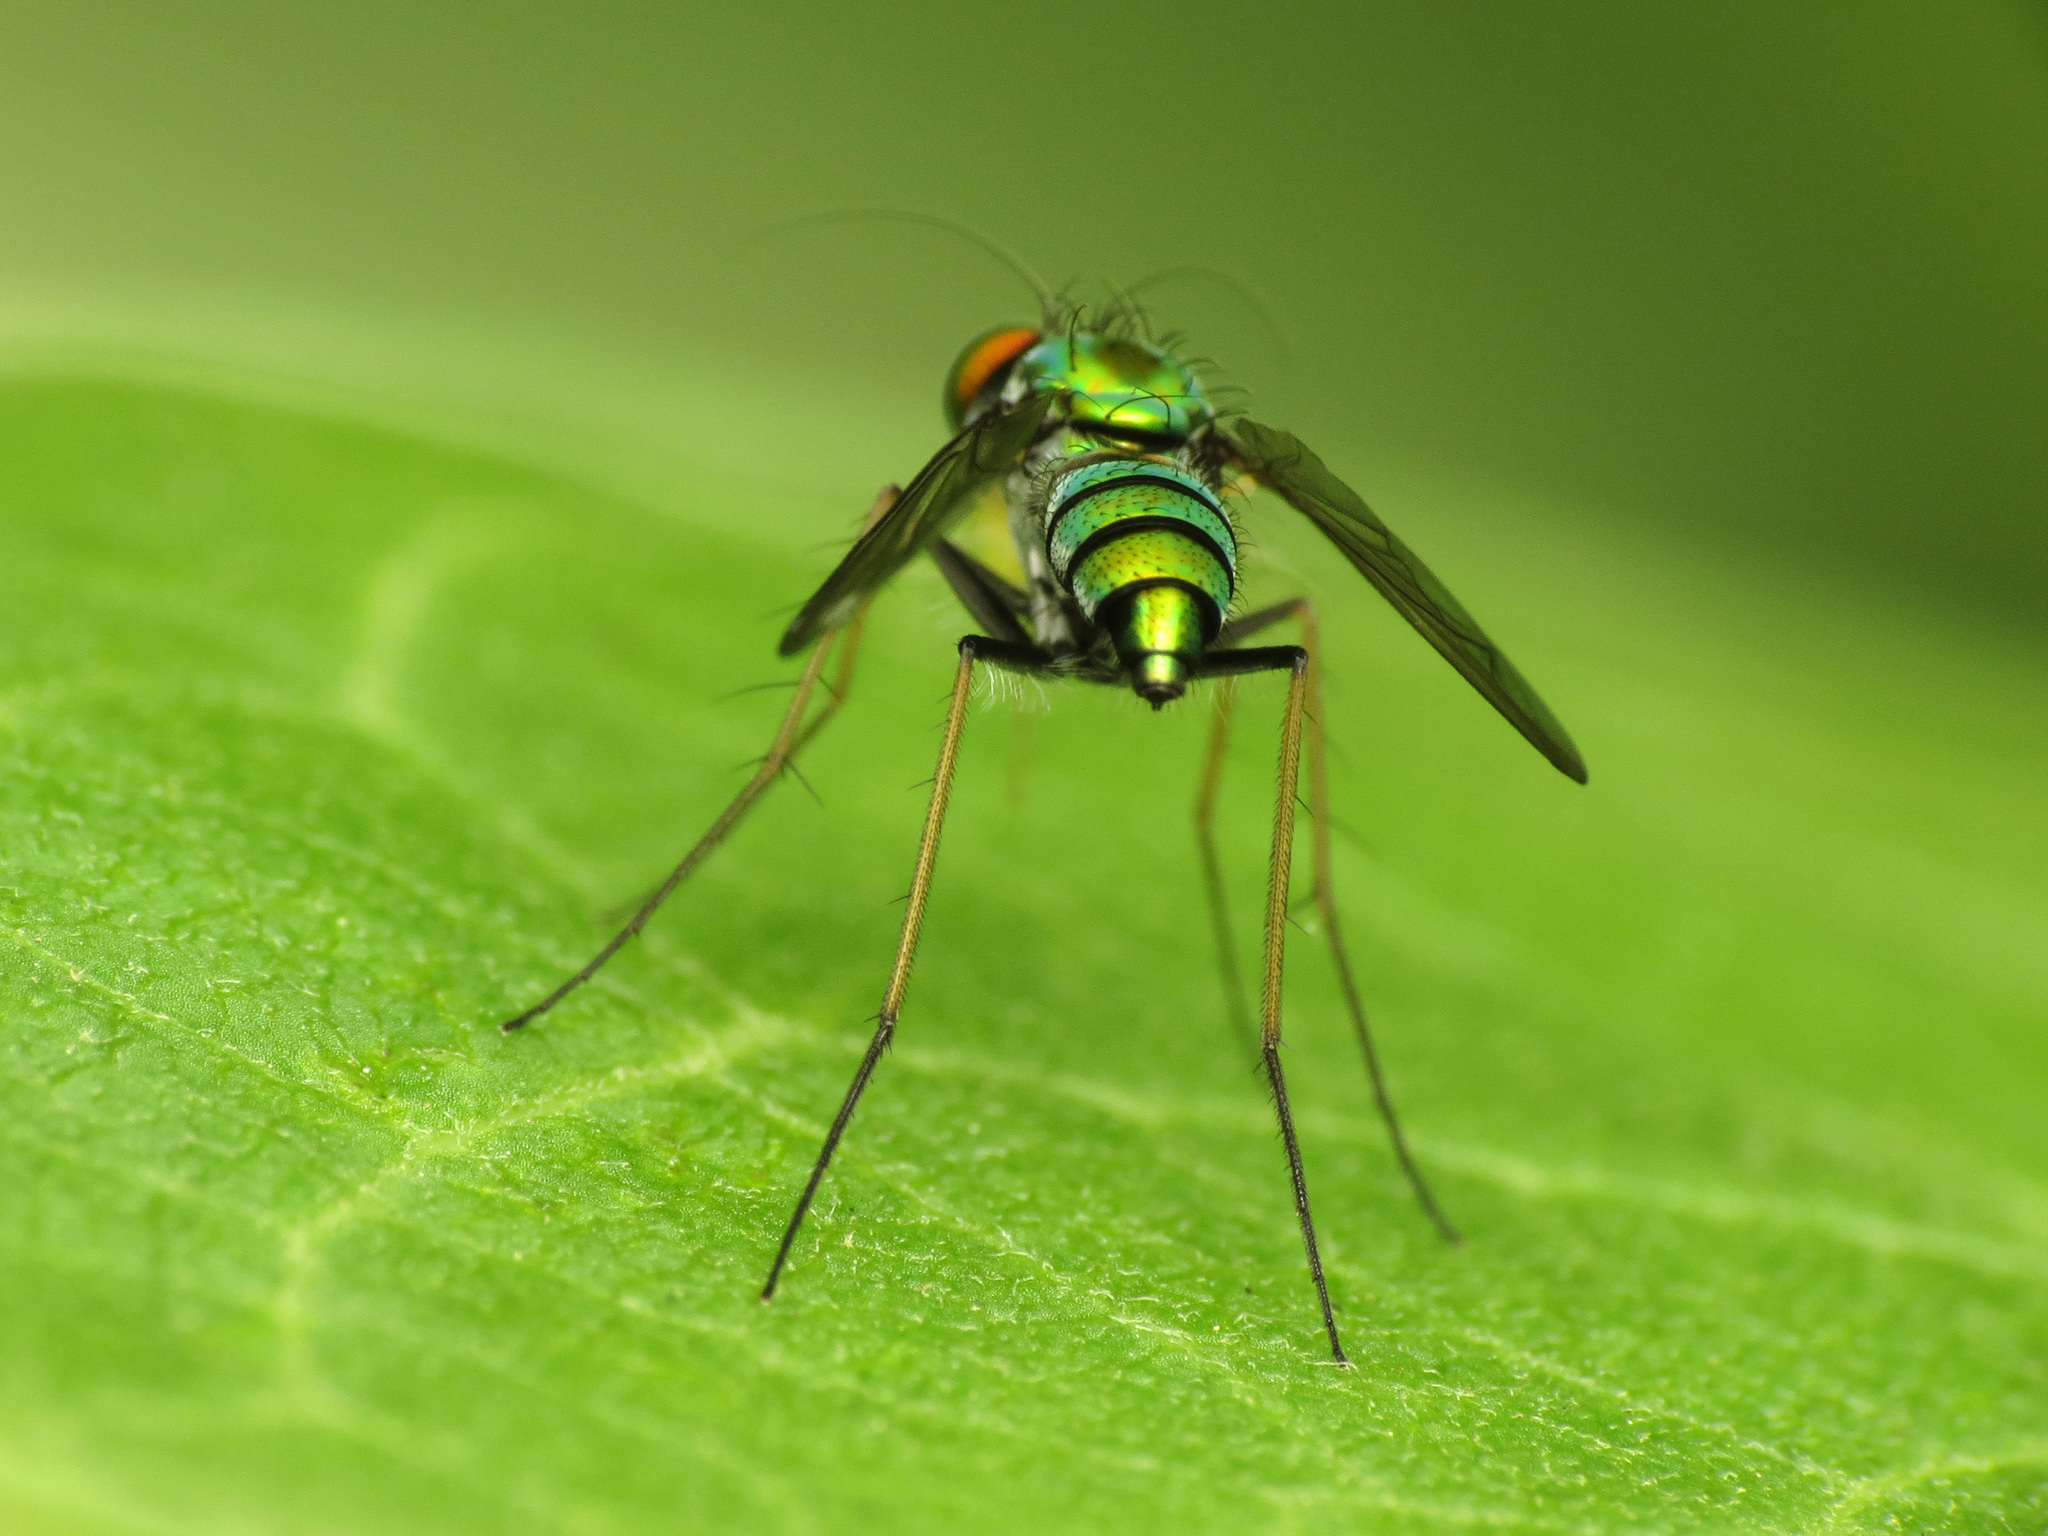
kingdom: Animalia
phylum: Arthropoda
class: Insecta
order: Diptera
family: Dolichopodidae
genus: Condylostylus
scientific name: Condylostylus
